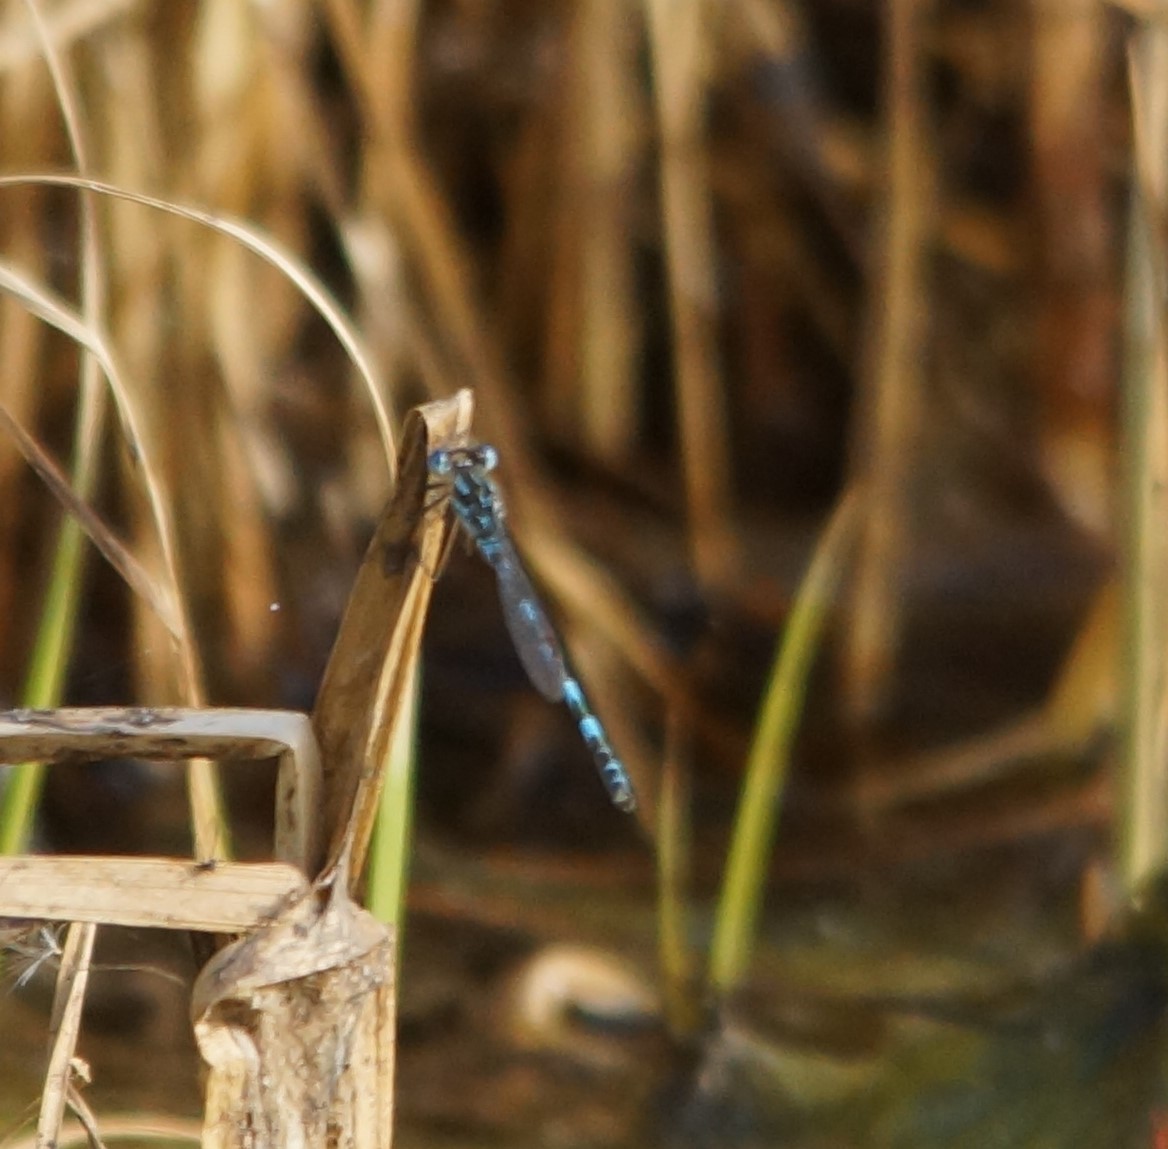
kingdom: Animalia
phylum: Arthropoda
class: Insecta
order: Odonata
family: Lestidae
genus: Austrolestes
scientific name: Austrolestes annulosus
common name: Blue ringtail
